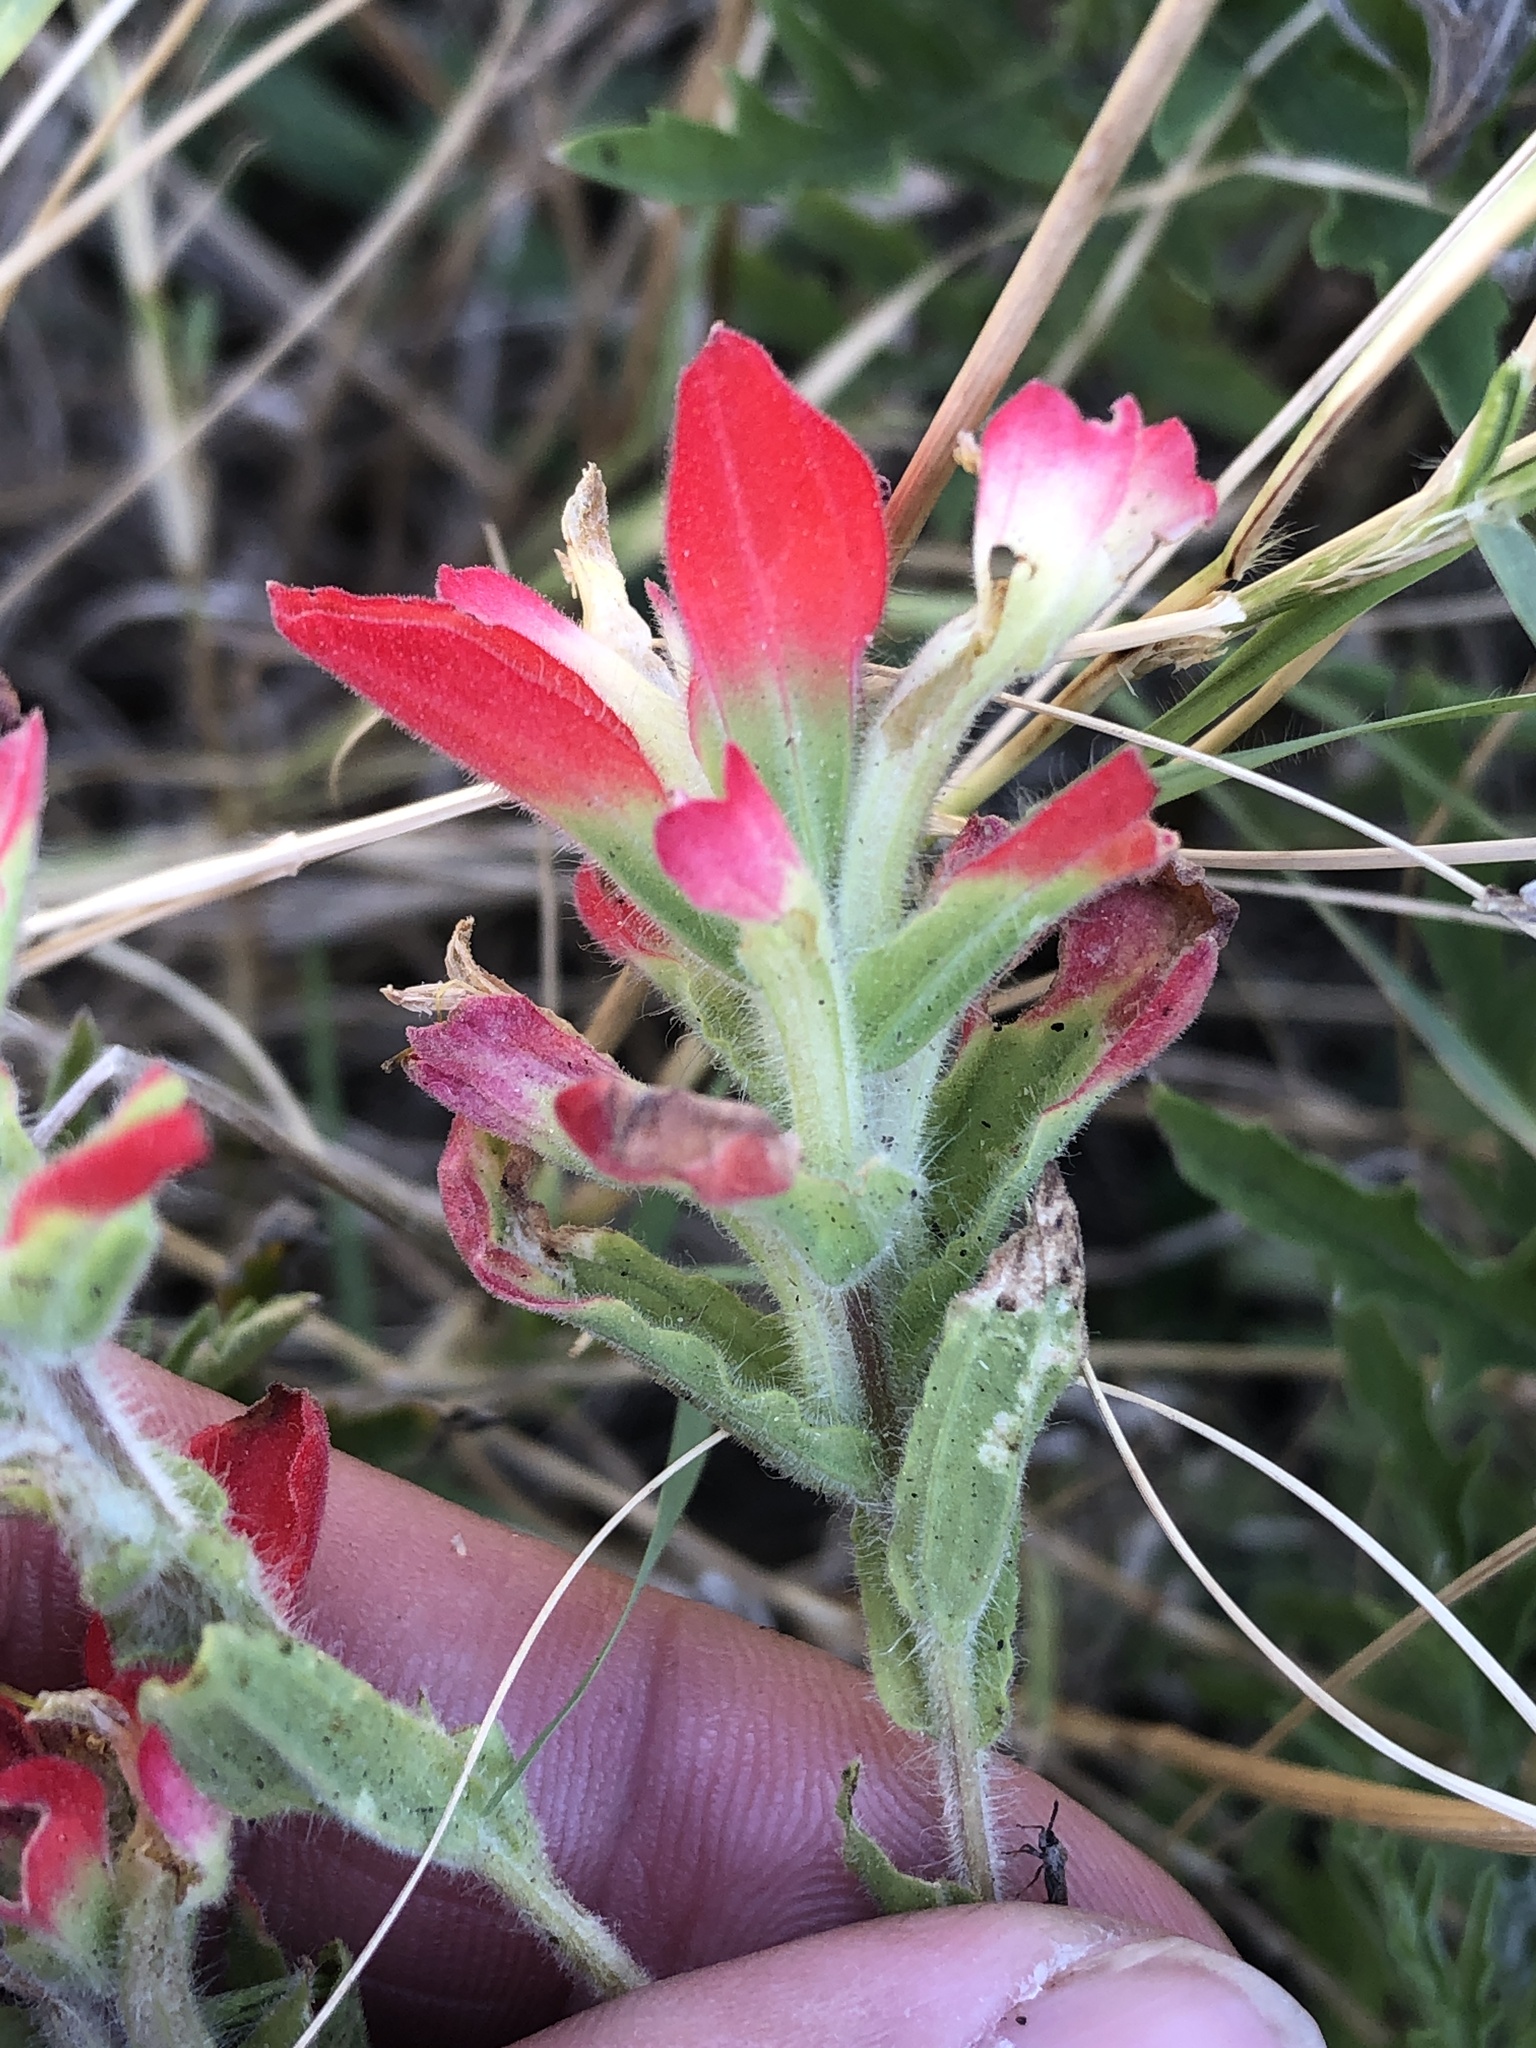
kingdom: Plantae
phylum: Tracheophyta
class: Magnoliopsida
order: Lamiales
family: Orobanchaceae
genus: Castilleja
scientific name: Castilleja indivisa
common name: Texas paintbrush
